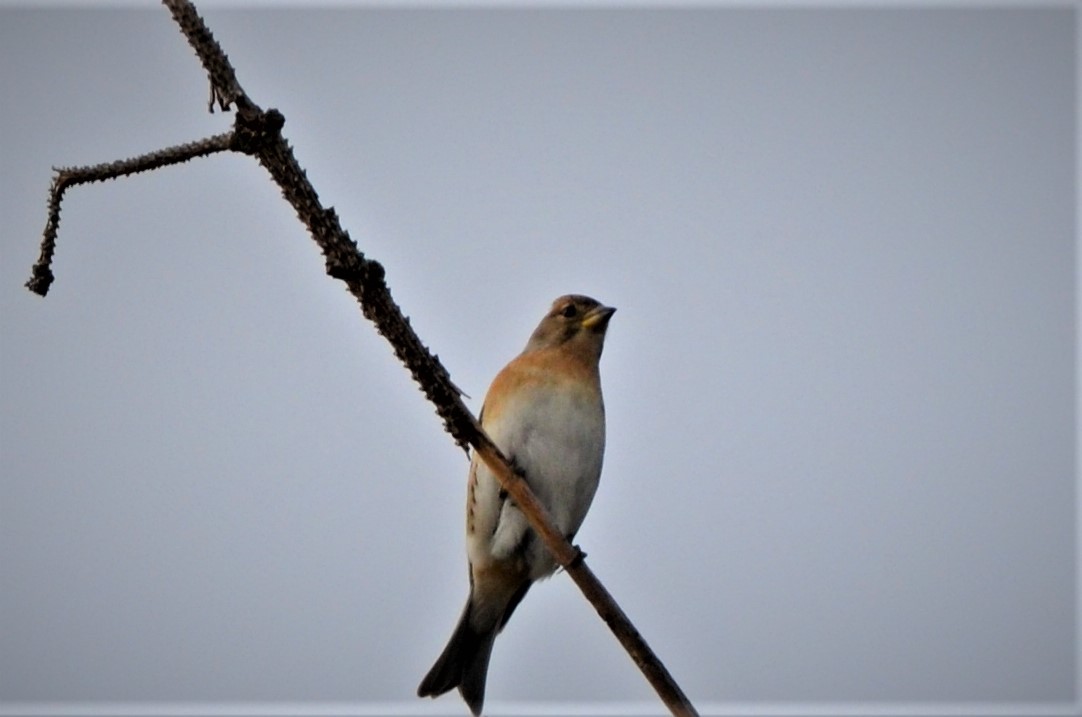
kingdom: Animalia
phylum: Chordata
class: Aves
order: Passeriformes
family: Fringillidae
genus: Fringilla
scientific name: Fringilla montifringilla
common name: Brambling
